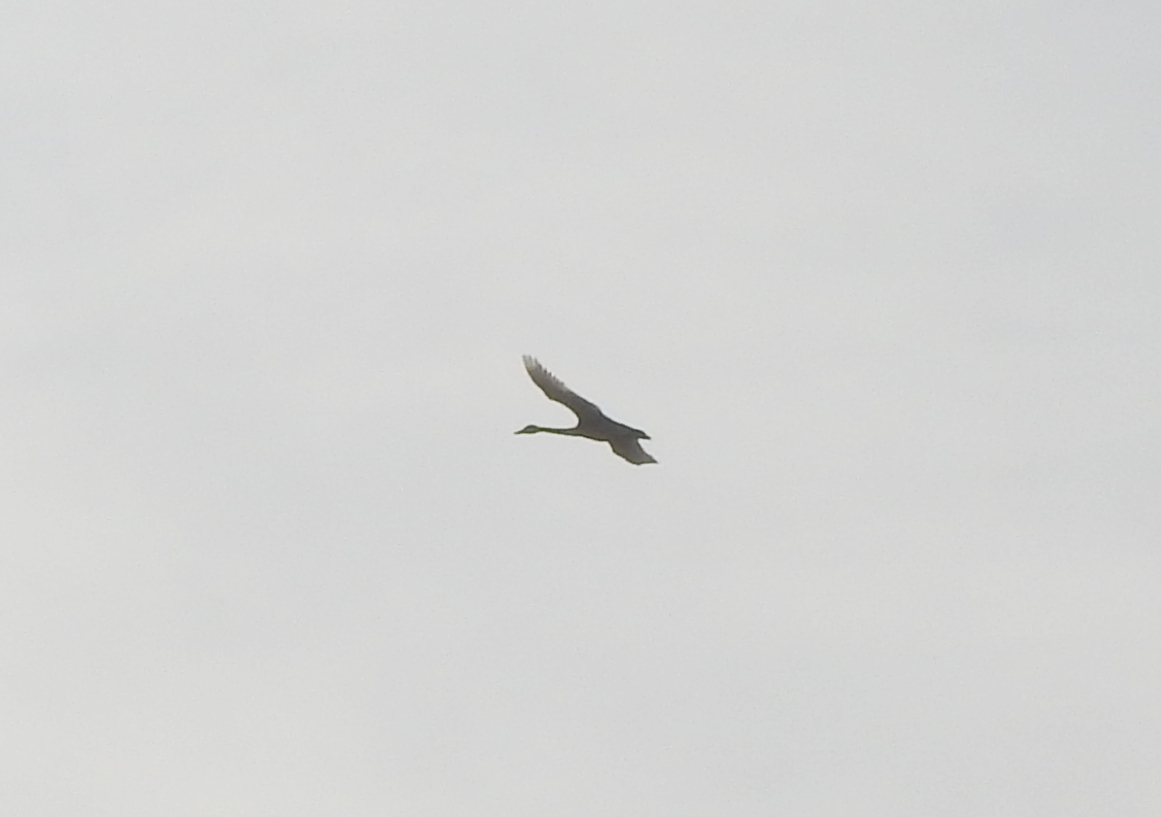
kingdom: Animalia
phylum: Chordata
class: Aves
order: Anseriformes
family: Anatidae
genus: Cygnus
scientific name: Cygnus cygnus
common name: Whooper swan
